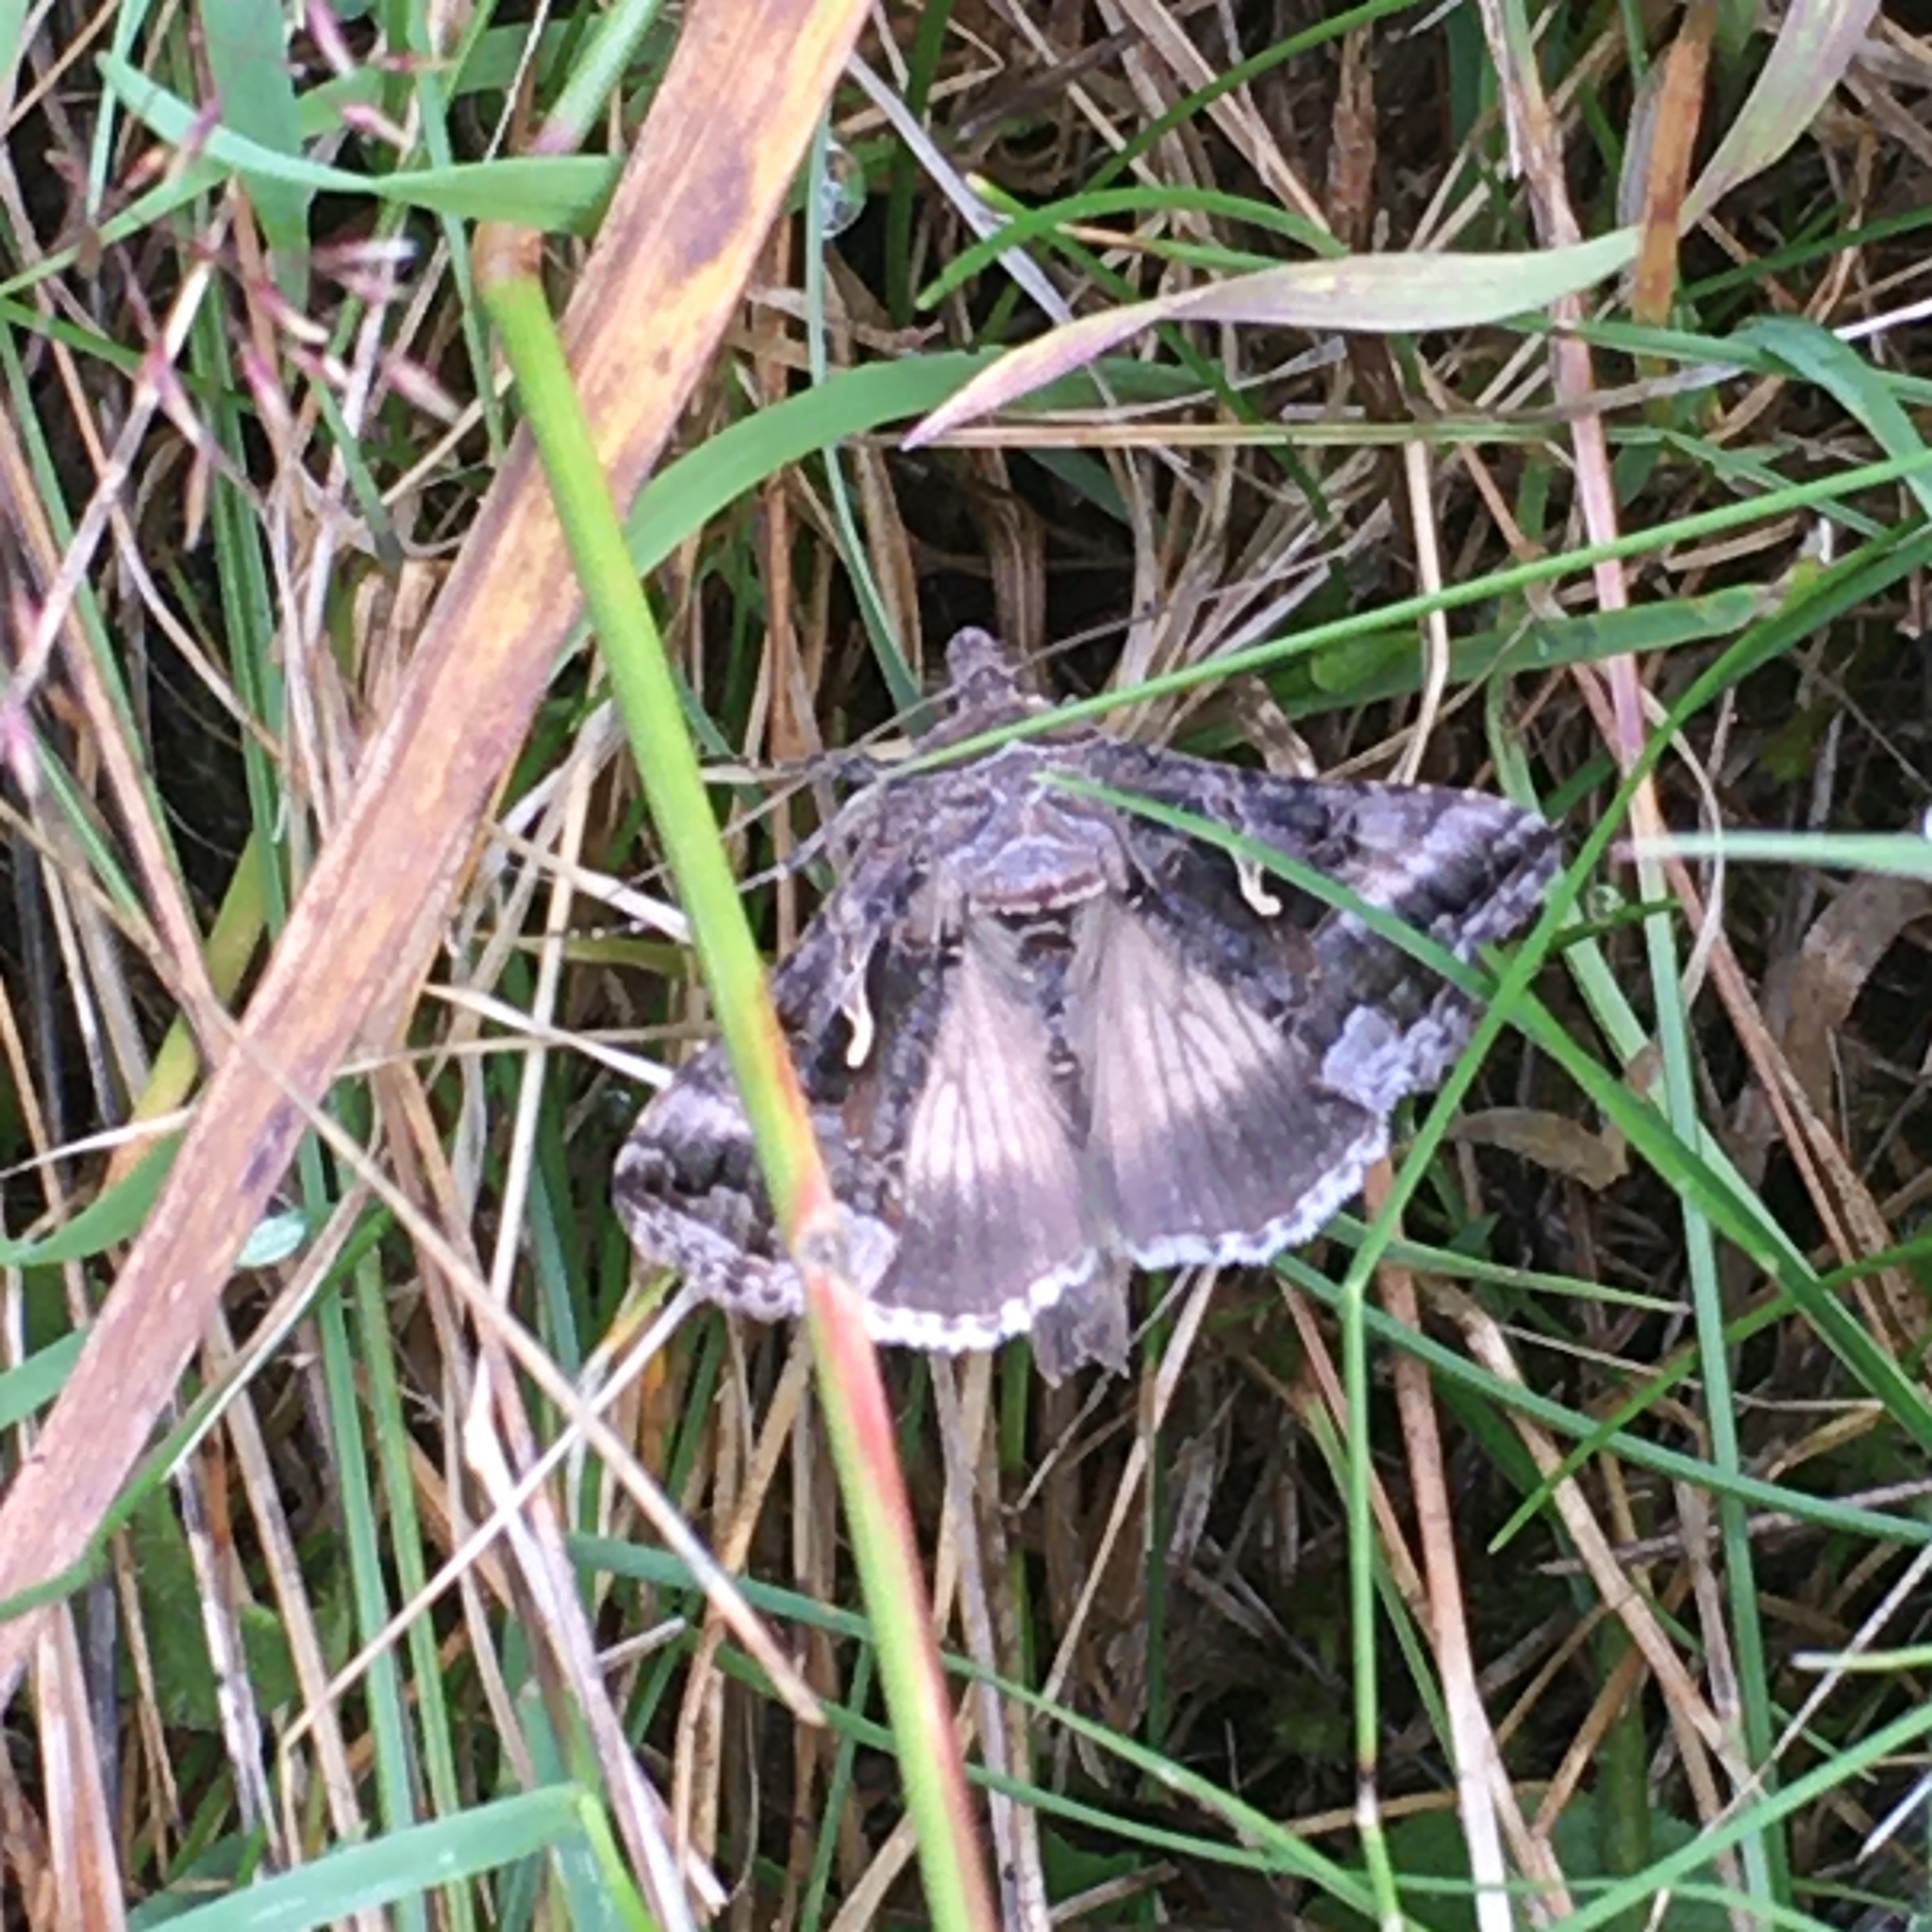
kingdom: Animalia
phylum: Arthropoda
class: Insecta
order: Lepidoptera
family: Noctuidae
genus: Autographa
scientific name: Autographa gamma
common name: Silver y
